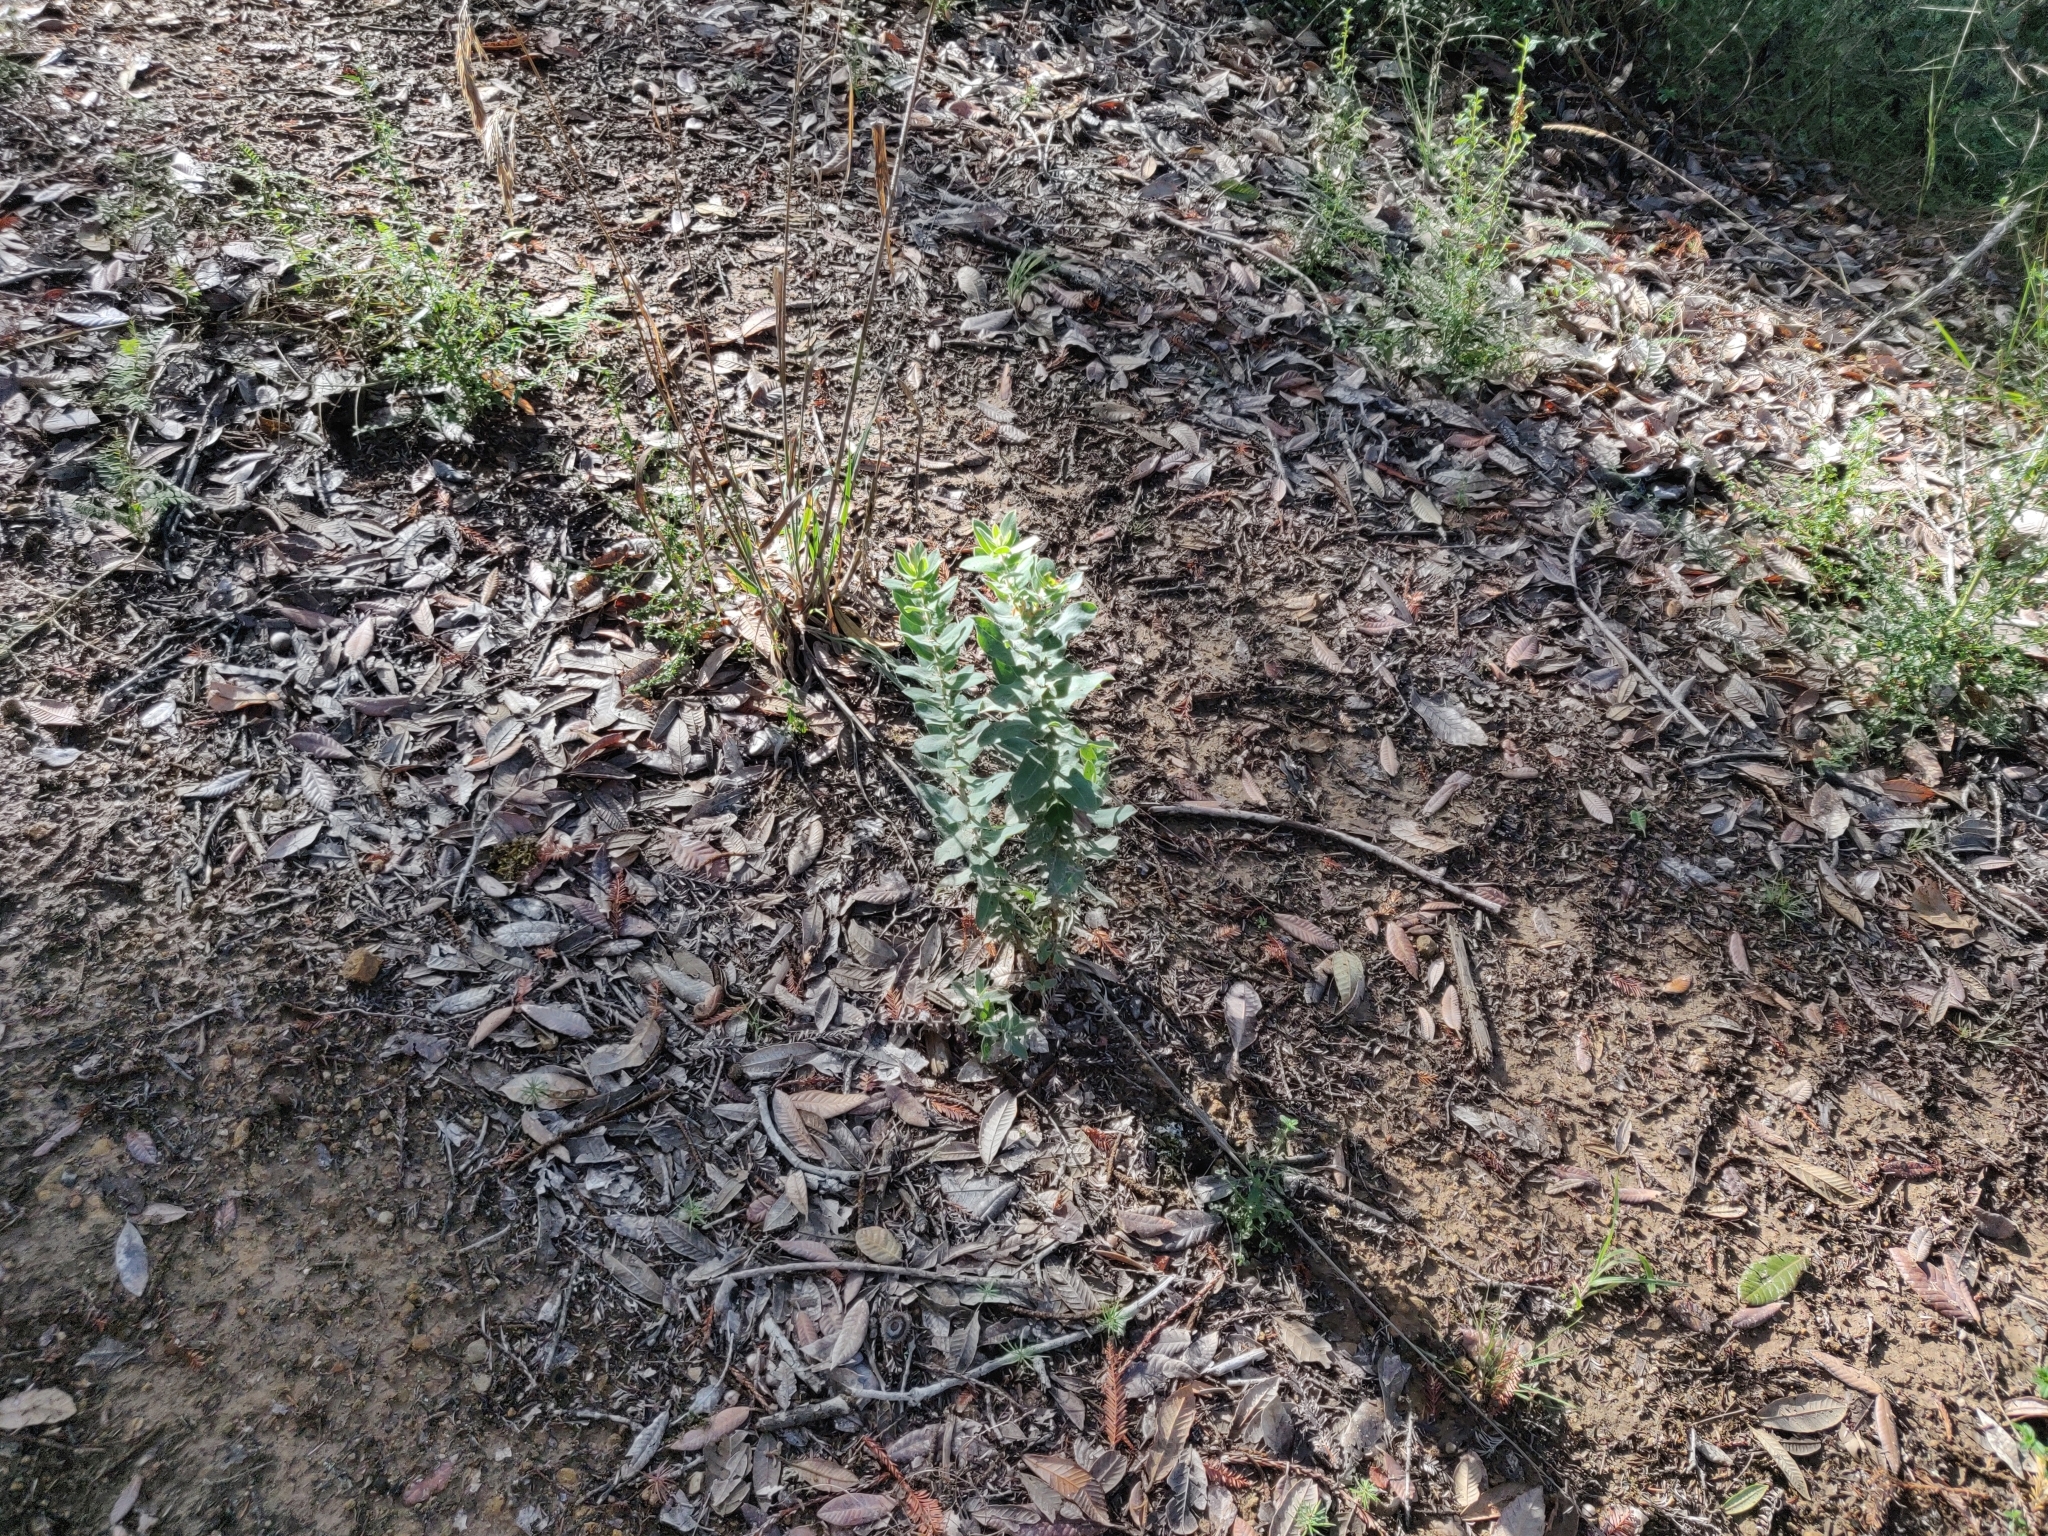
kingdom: Plantae
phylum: Tracheophyta
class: Magnoliopsida
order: Ericales
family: Ericaceae
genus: Arctostaphylos
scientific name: Arctostaphylos andersonii
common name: Santa cruz manzanita
